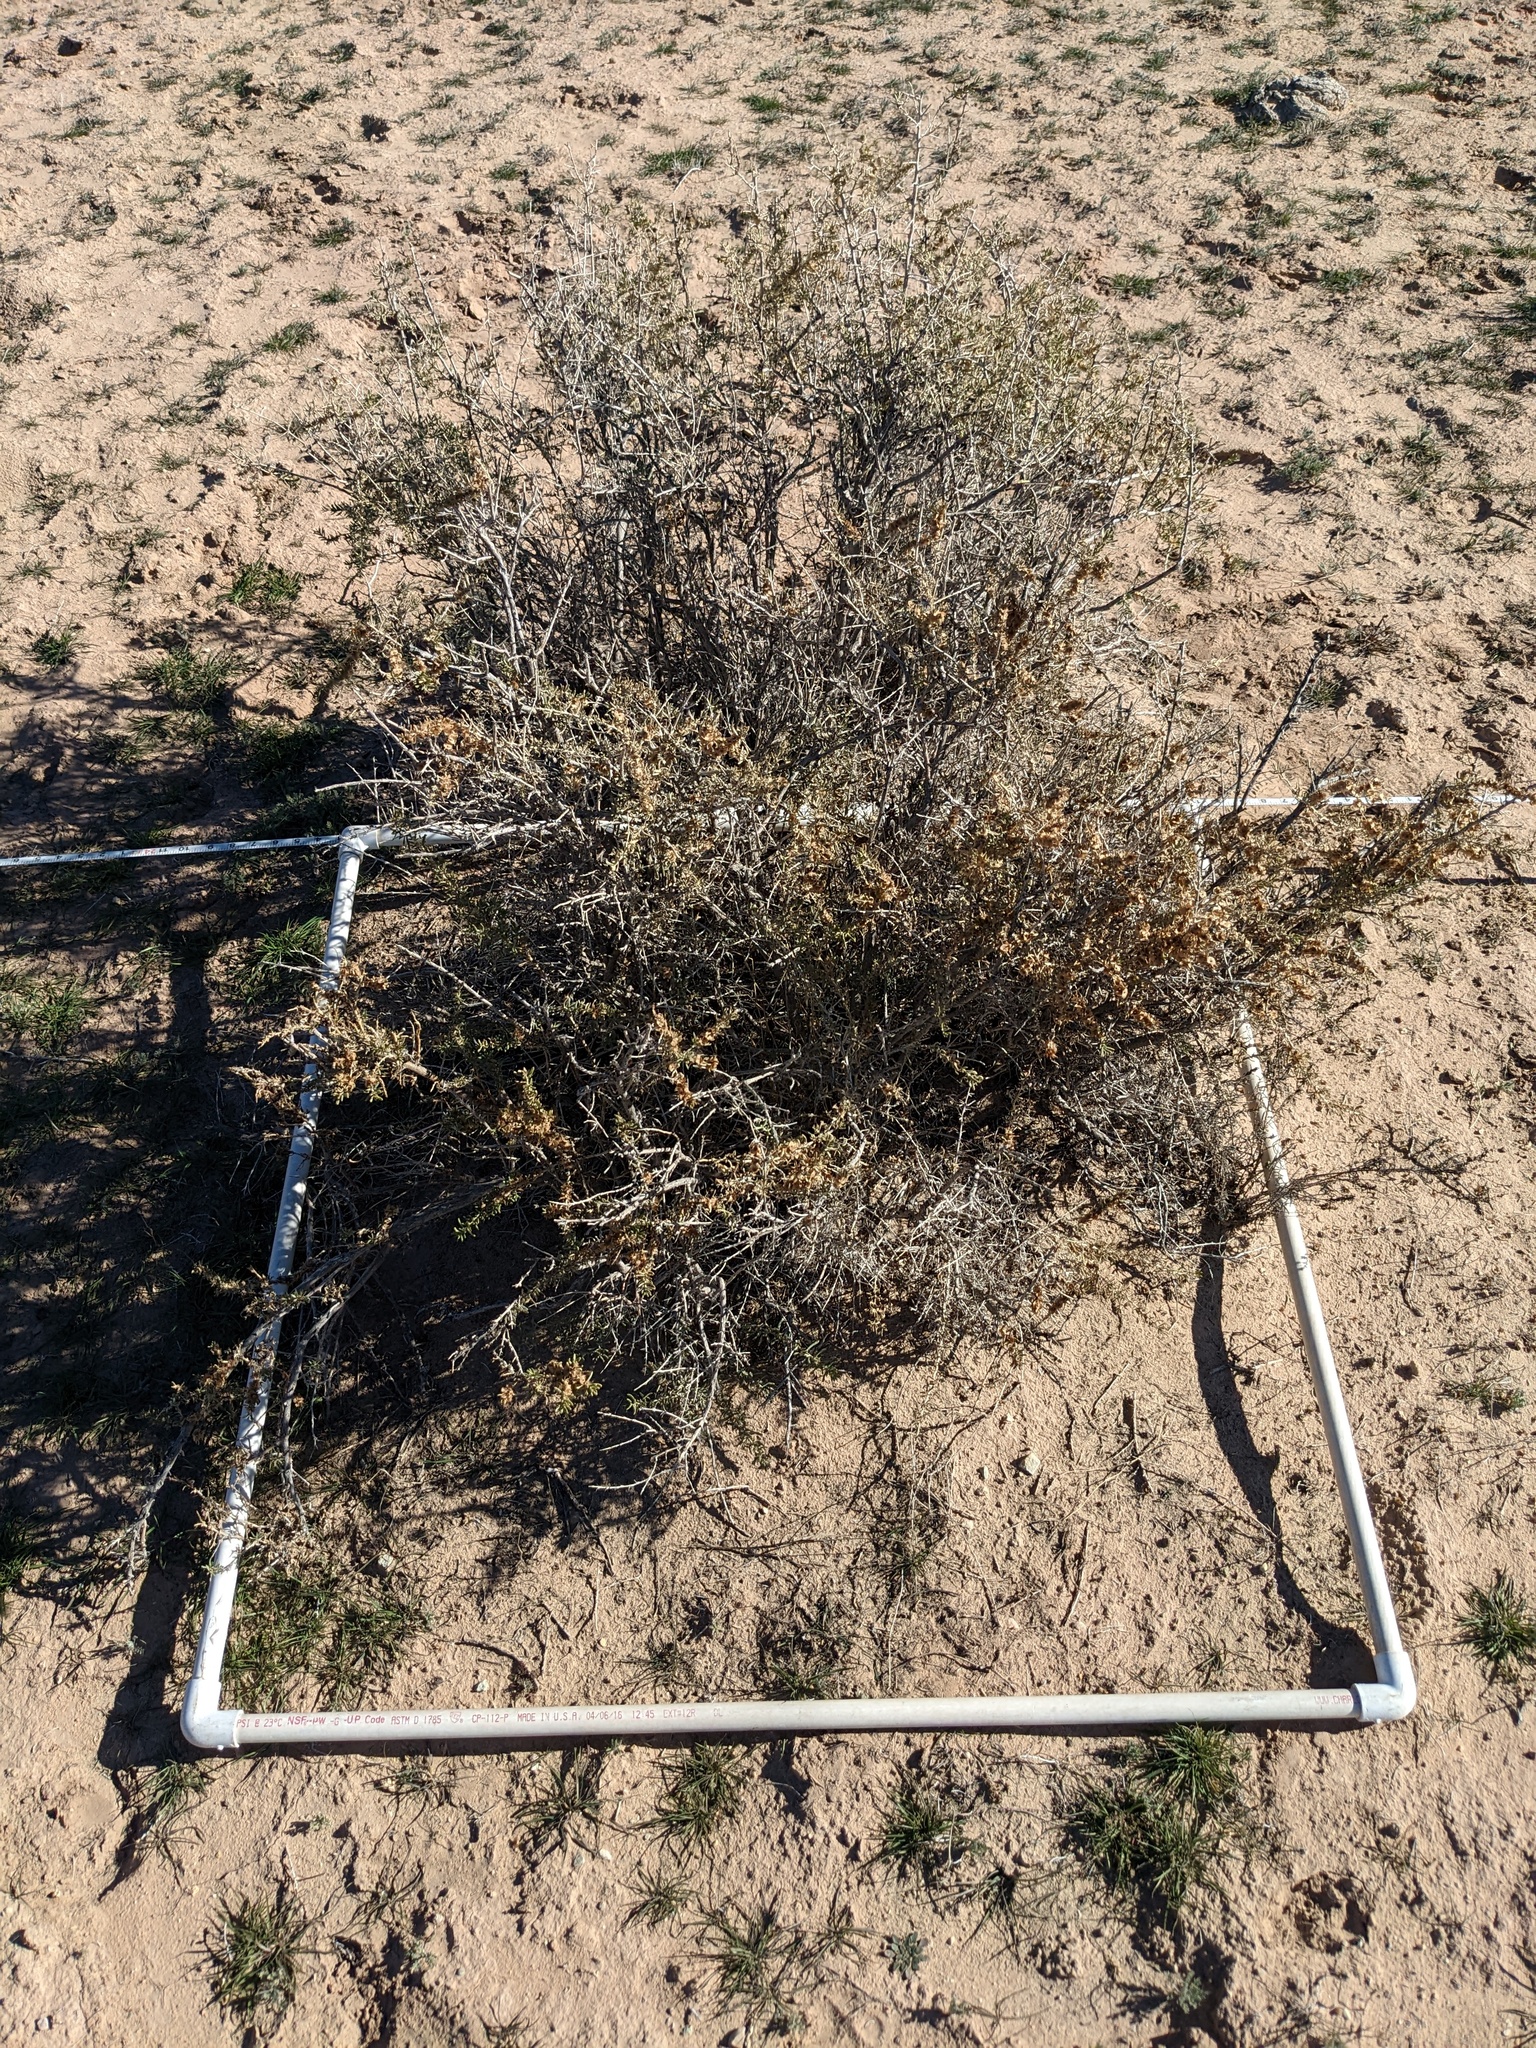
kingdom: Plantae
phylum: Tracheophyta
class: Magnoliopsida
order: Caryophyllales
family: Sarcobataceae
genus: Sarcobatus
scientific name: Sarcobatus vermiculatus
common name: Greasewood
